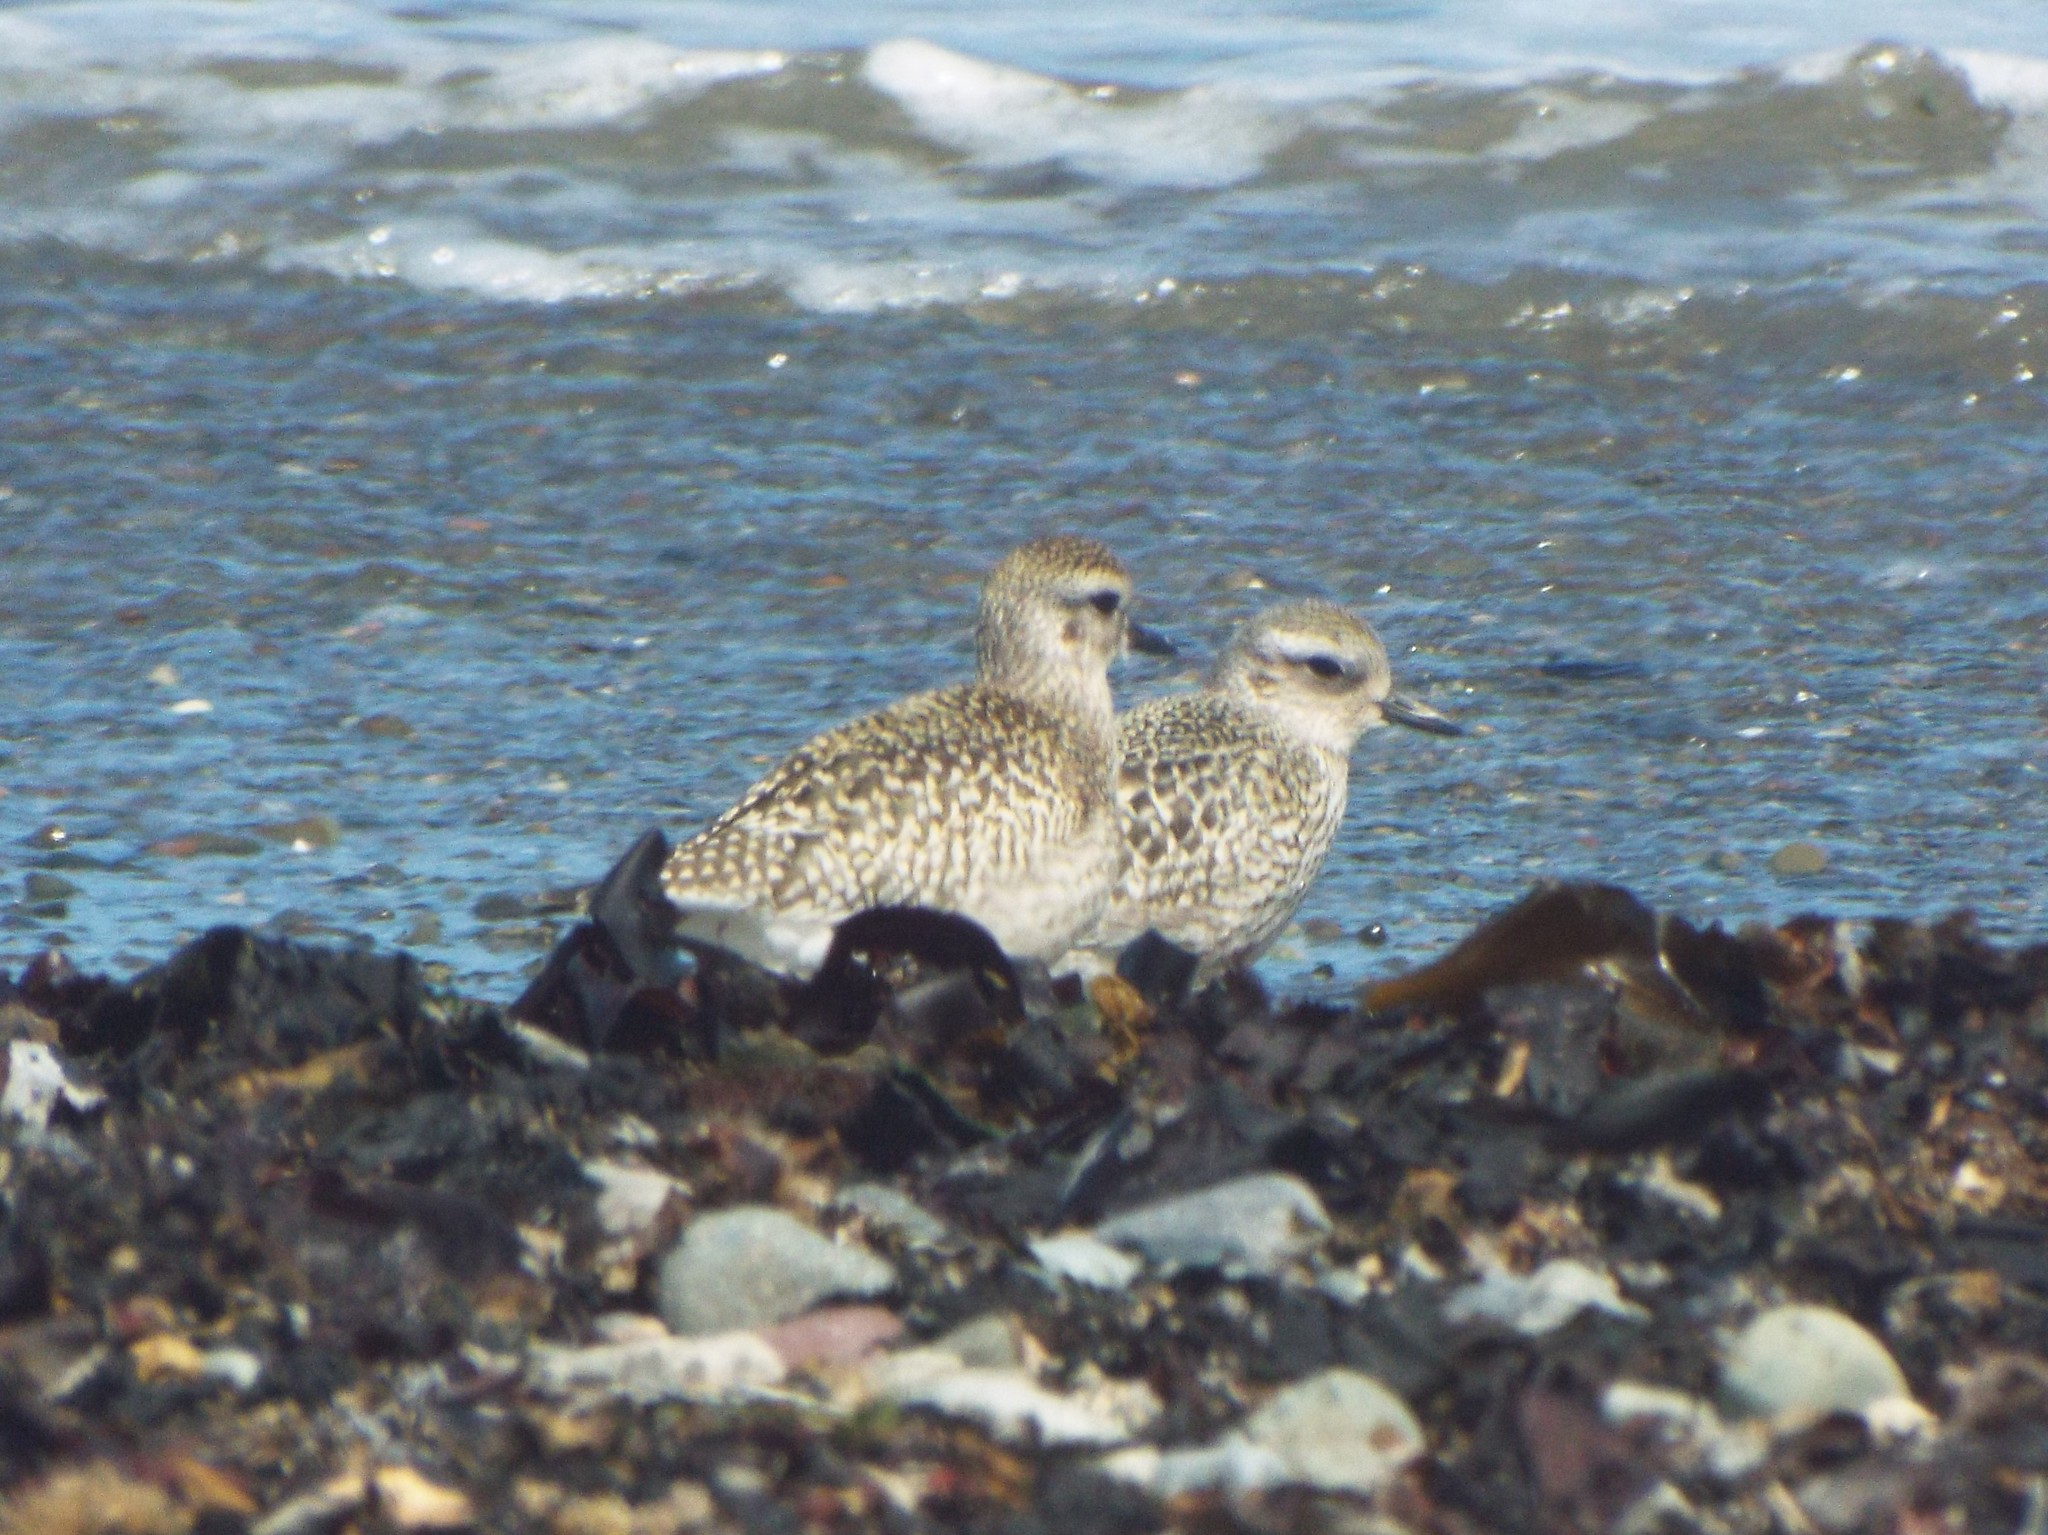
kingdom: Animalia
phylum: Chordata
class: Aves
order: Charadriiformes
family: Charadriidae
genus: Pluvialis
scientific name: Pluvialis squatarola
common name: Grey plover
